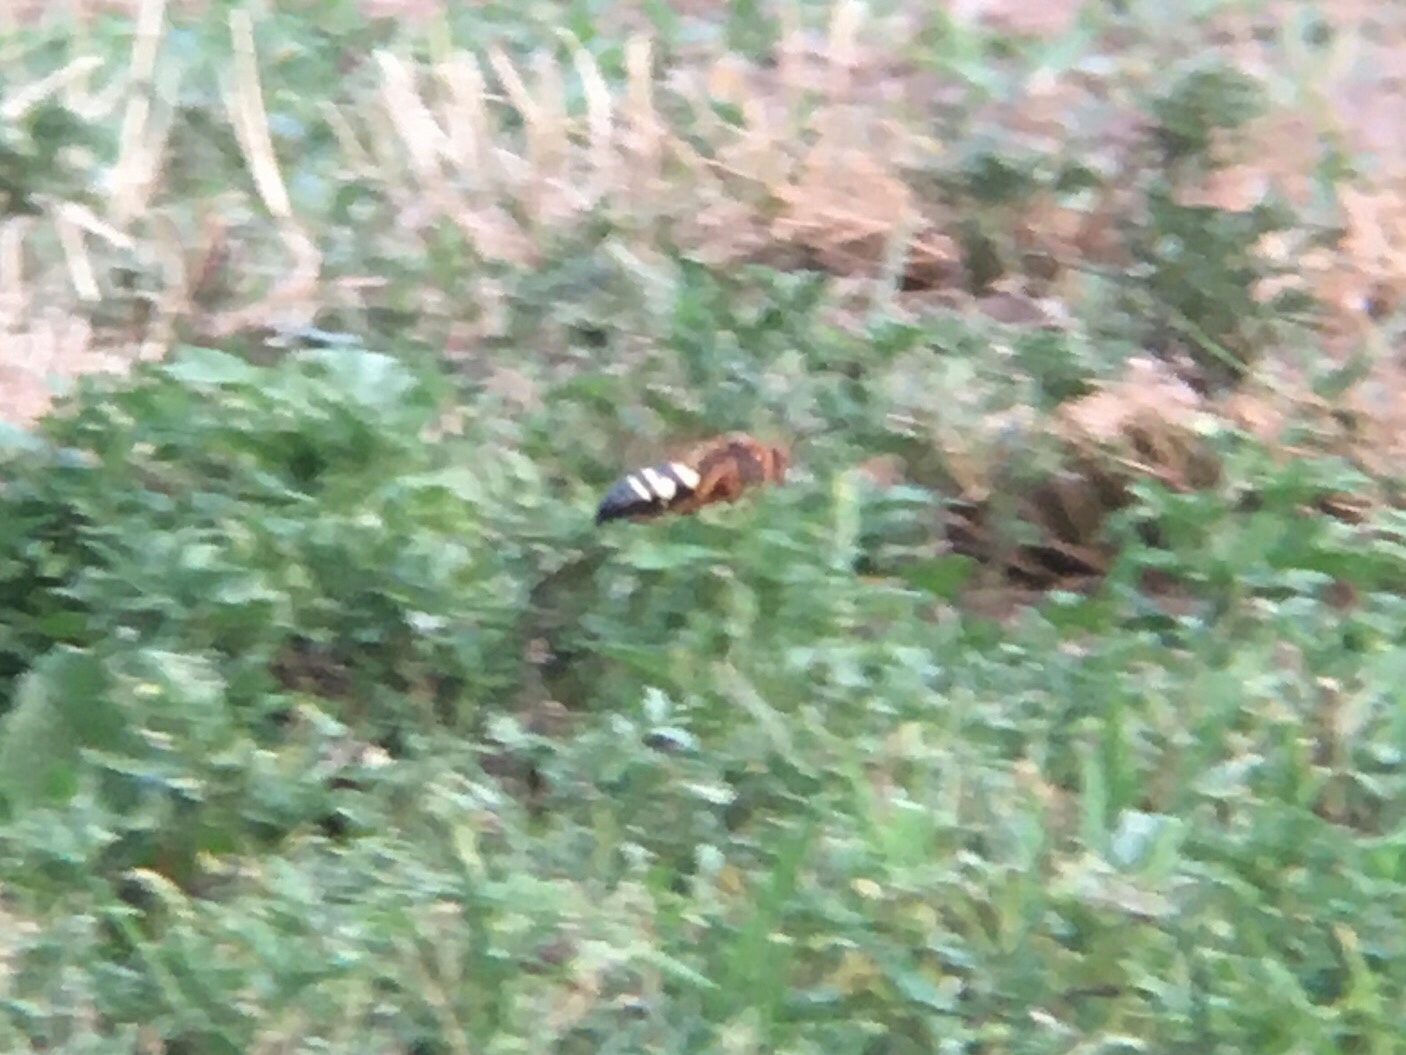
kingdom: Animalia
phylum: Arthropoda
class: Insecta
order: Hymenoptera
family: Crabronidae
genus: Sphecius
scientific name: Sphecius speciosus
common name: Cicada killer
